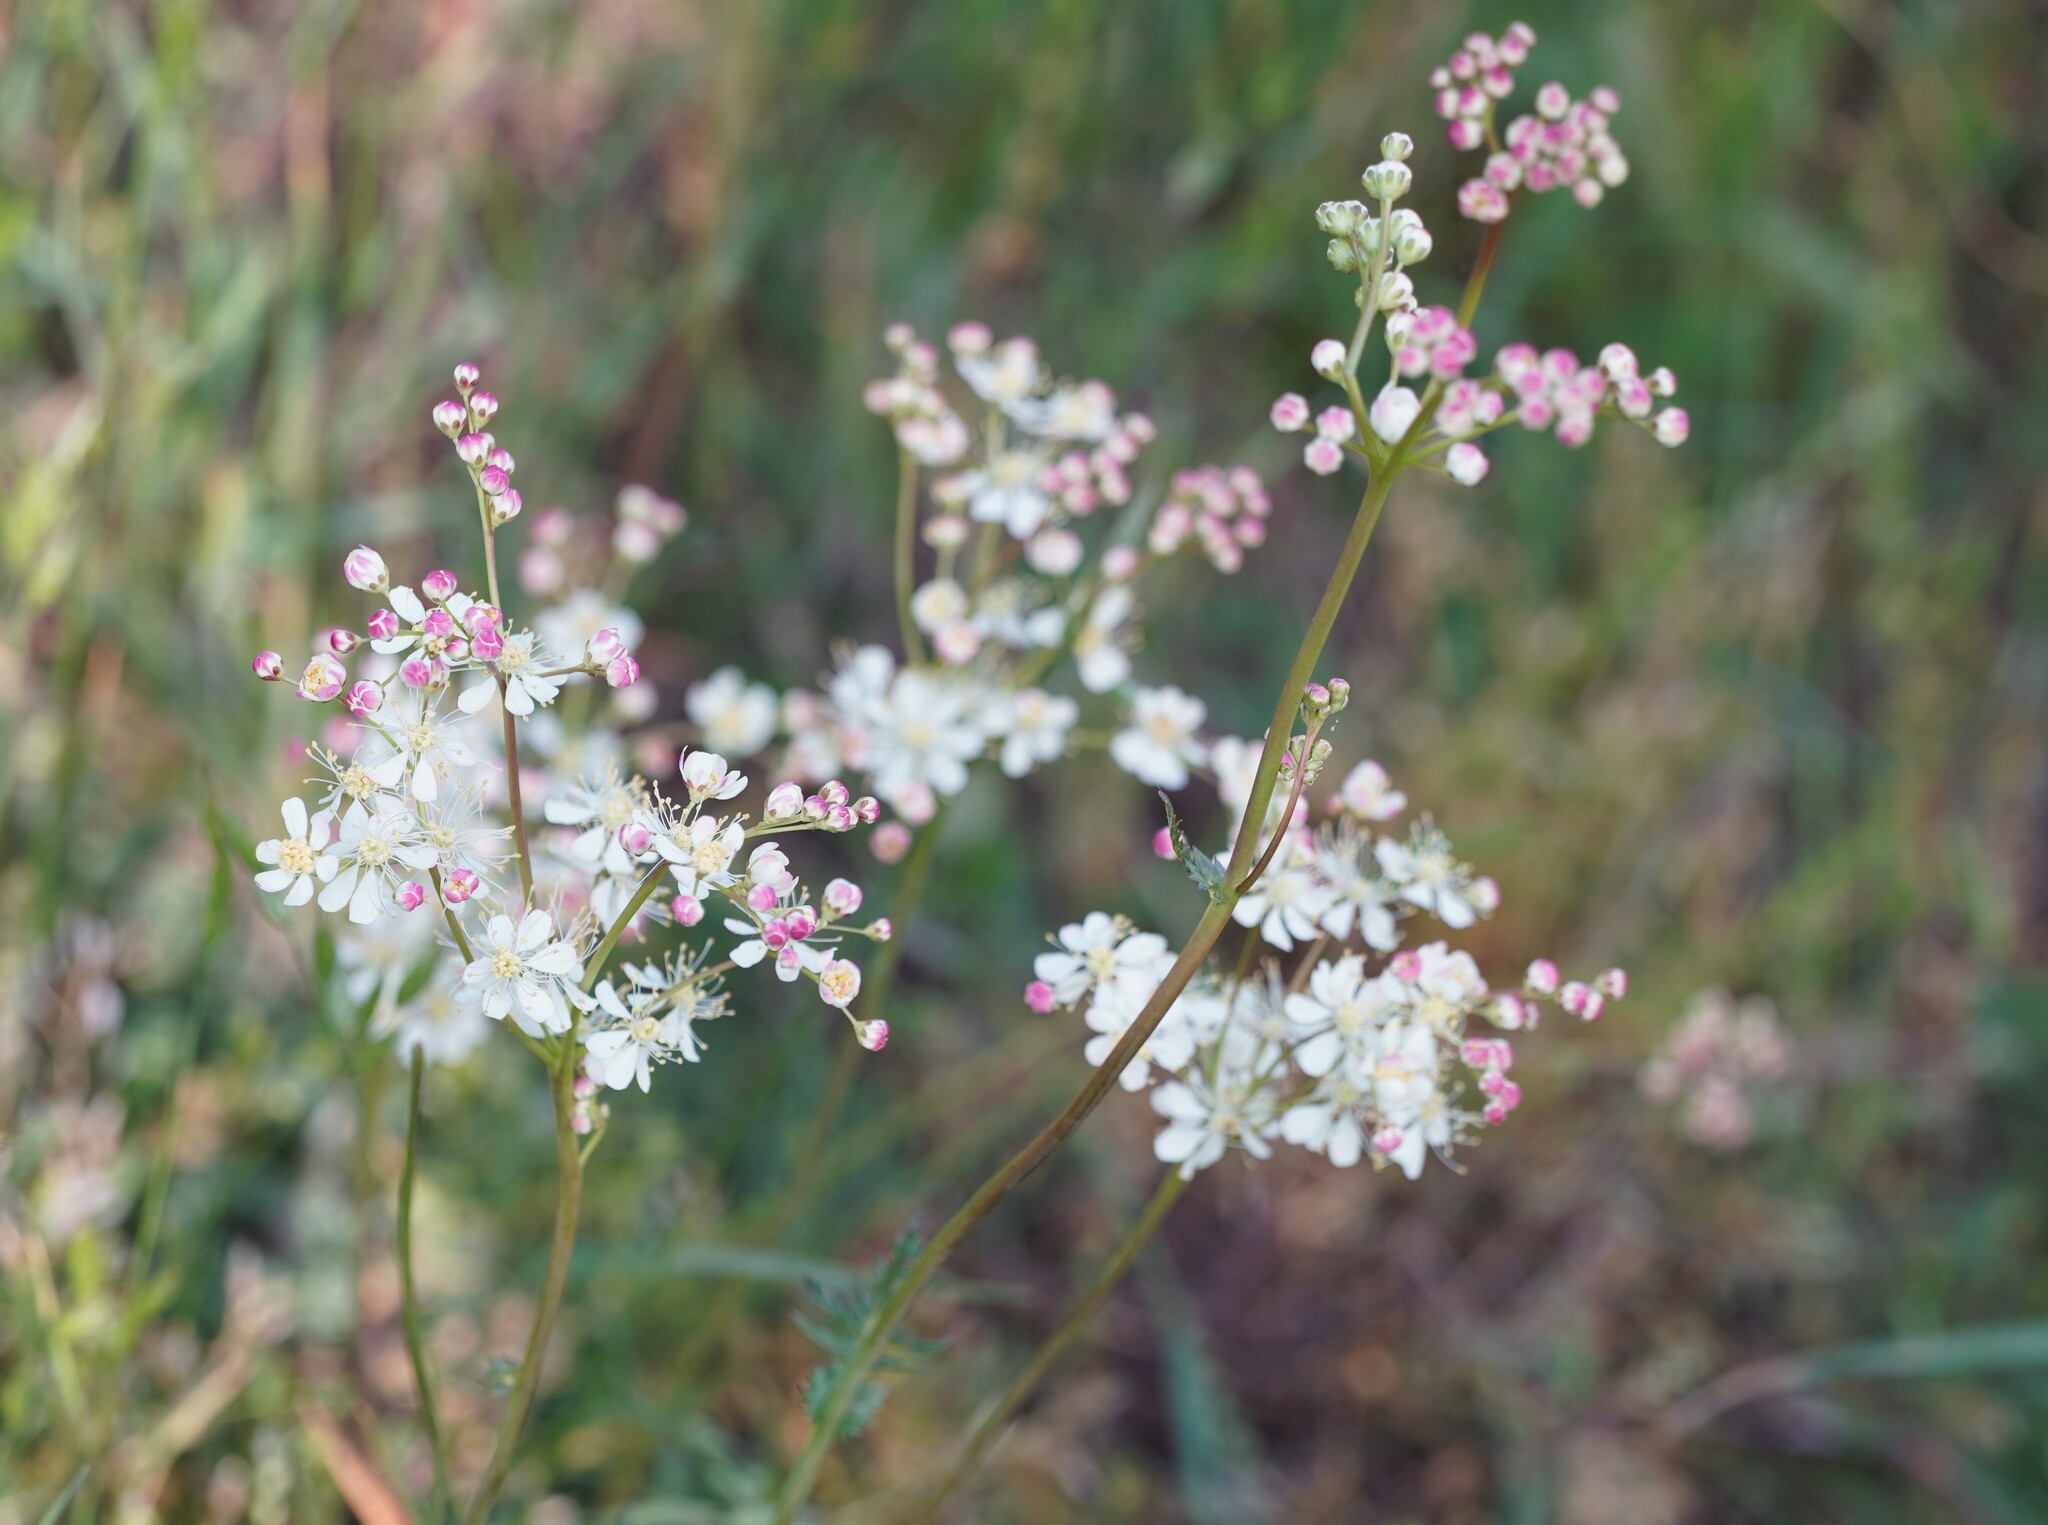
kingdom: Plantae
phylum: Tracheophyta
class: Magnoliopsida
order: Rosales
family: Rosaceae
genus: Filipendula
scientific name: Filipendula vulgaris
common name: Dropwort
